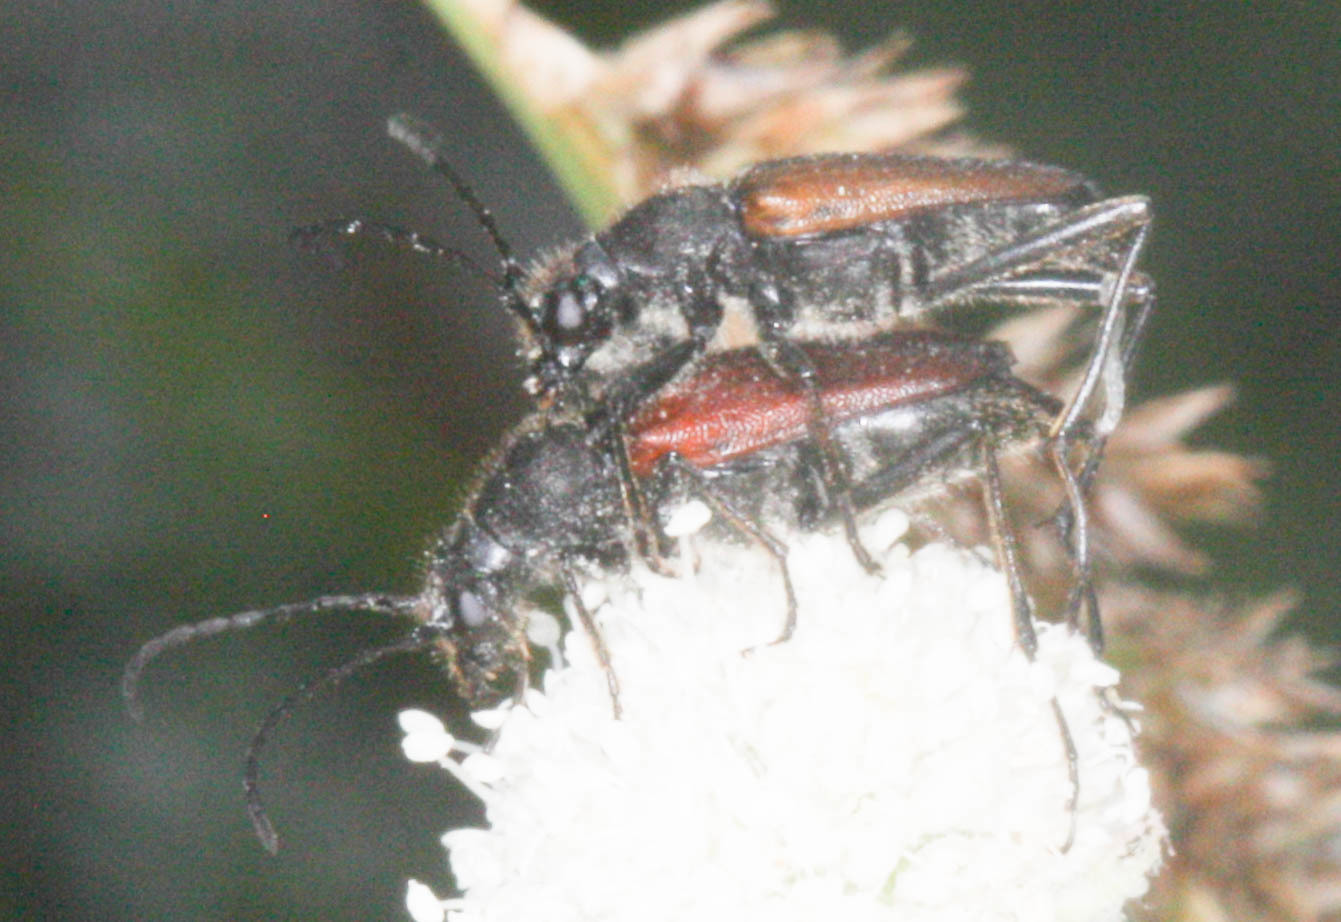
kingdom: Animalia
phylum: Arthropoda
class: Insecta
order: Coleoptera
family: Cerambycidae
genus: Anastrangalia
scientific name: Anastrangalia sanguinea
